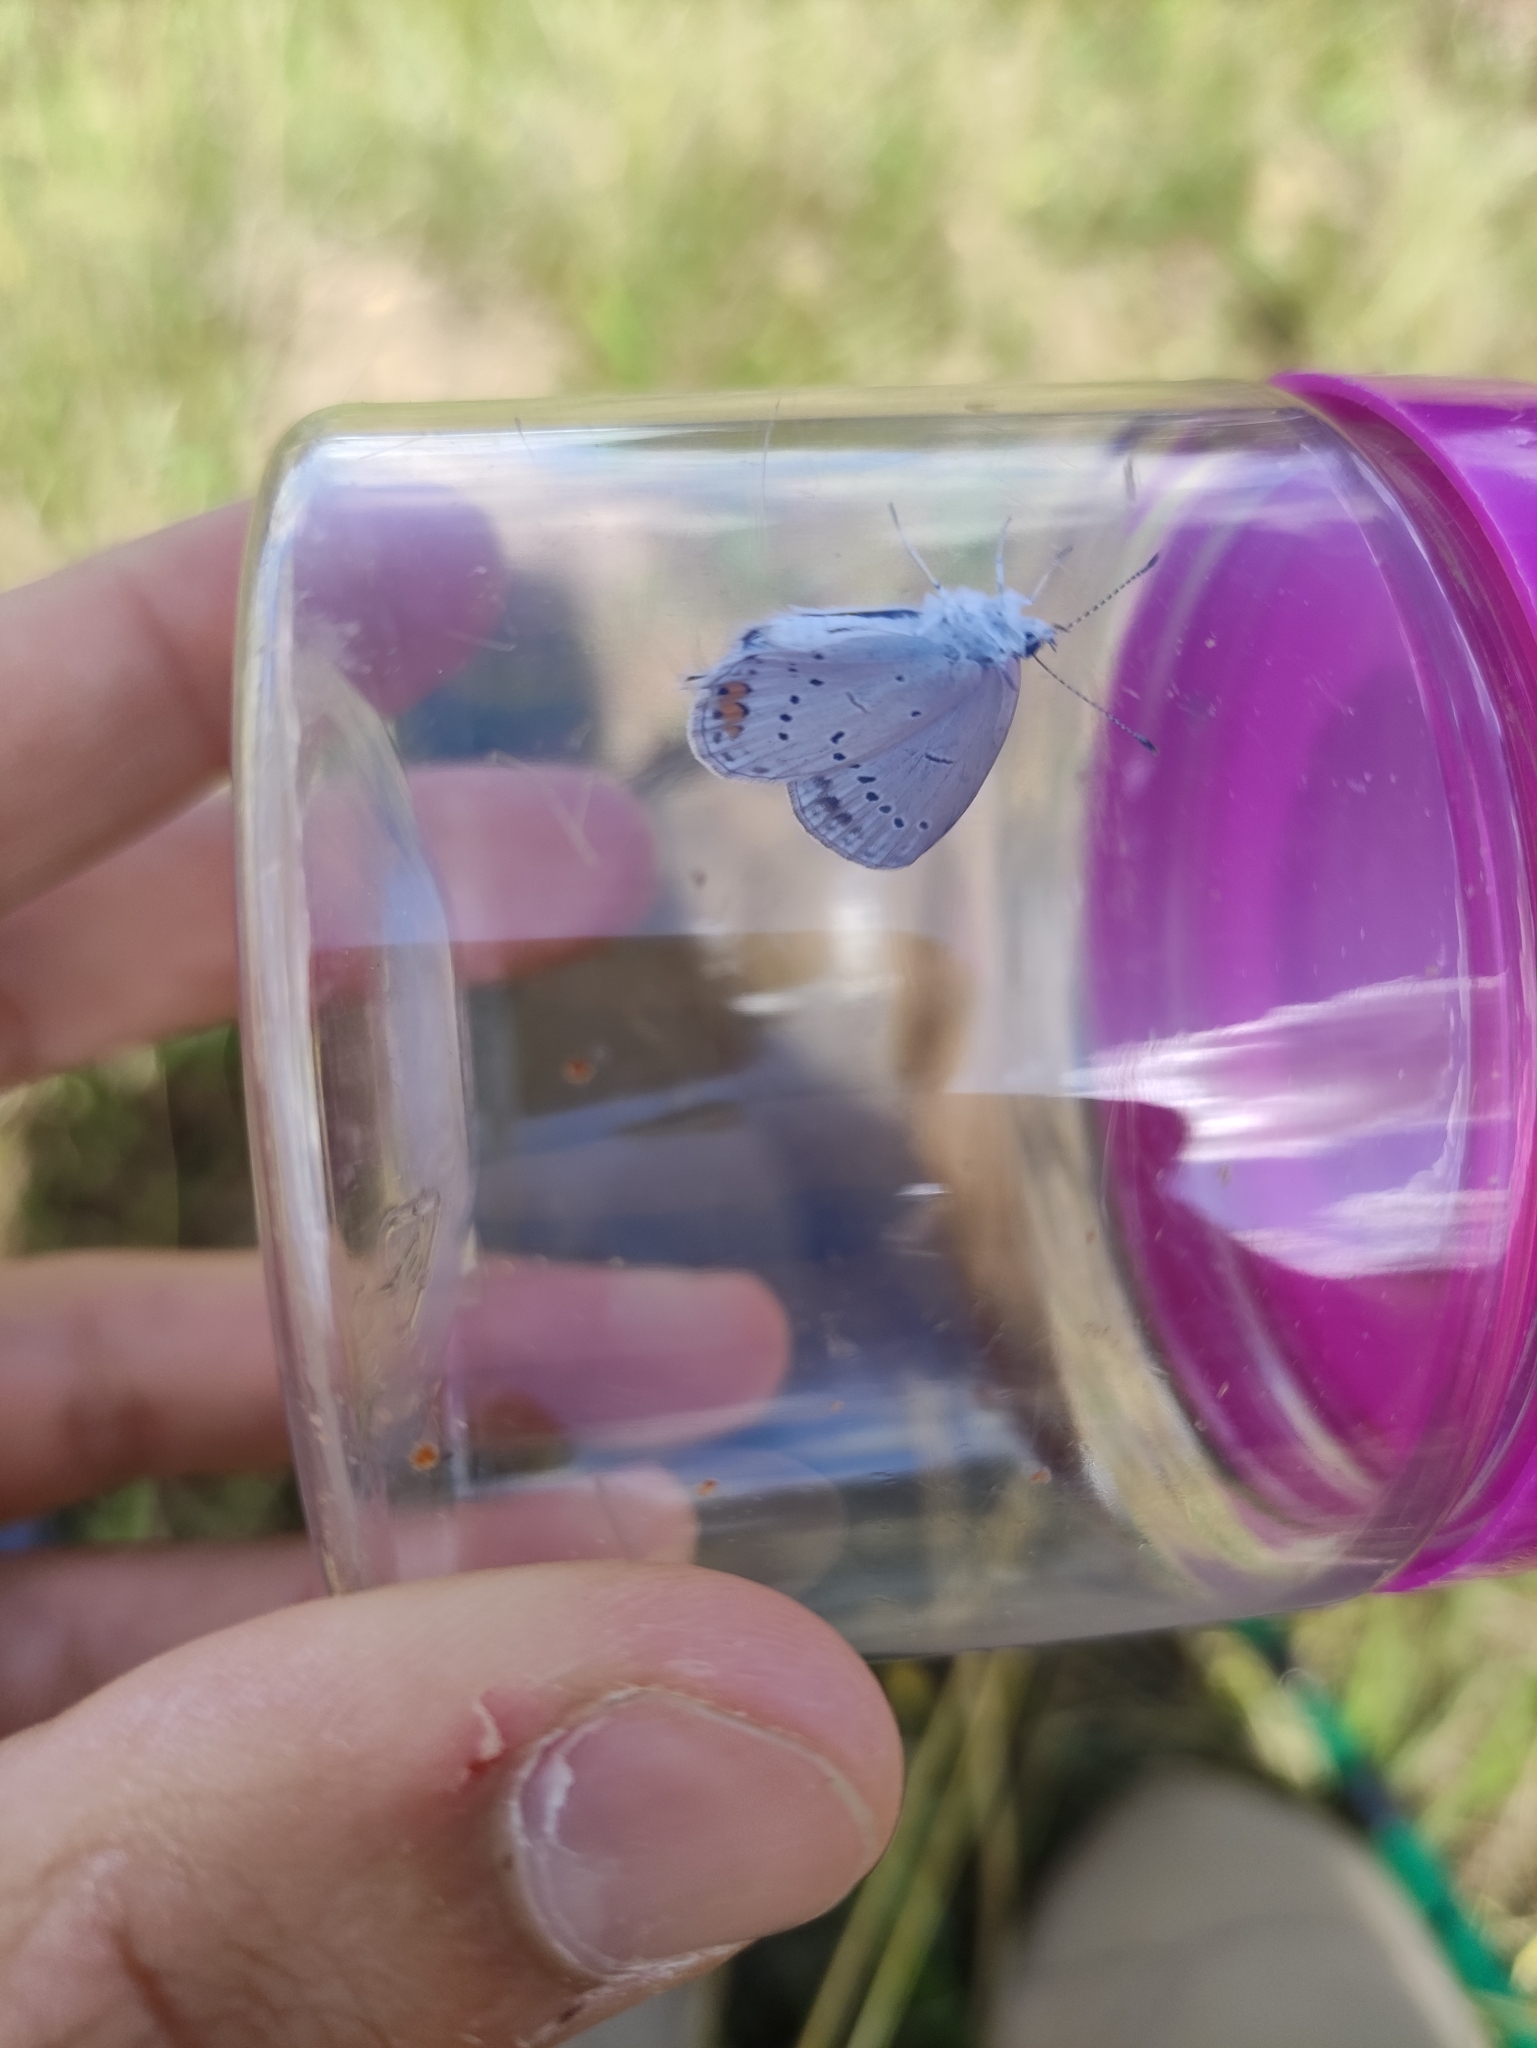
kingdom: Animalia
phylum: Arthropoda
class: Insecta
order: Lepidoptera
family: Lycaenidae
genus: Elkalyce
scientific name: Elkalyce argiades
